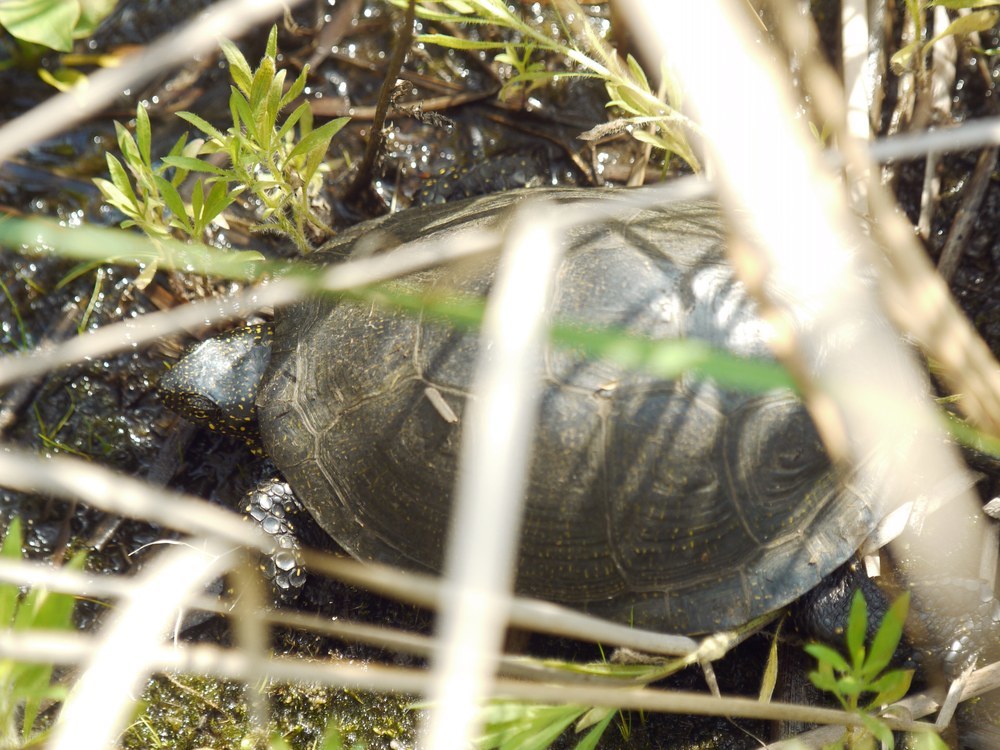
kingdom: Animalia
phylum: Chordata
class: Testudines
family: Emydidae
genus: Emys
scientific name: Emys orbicularis
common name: European pond turtle
